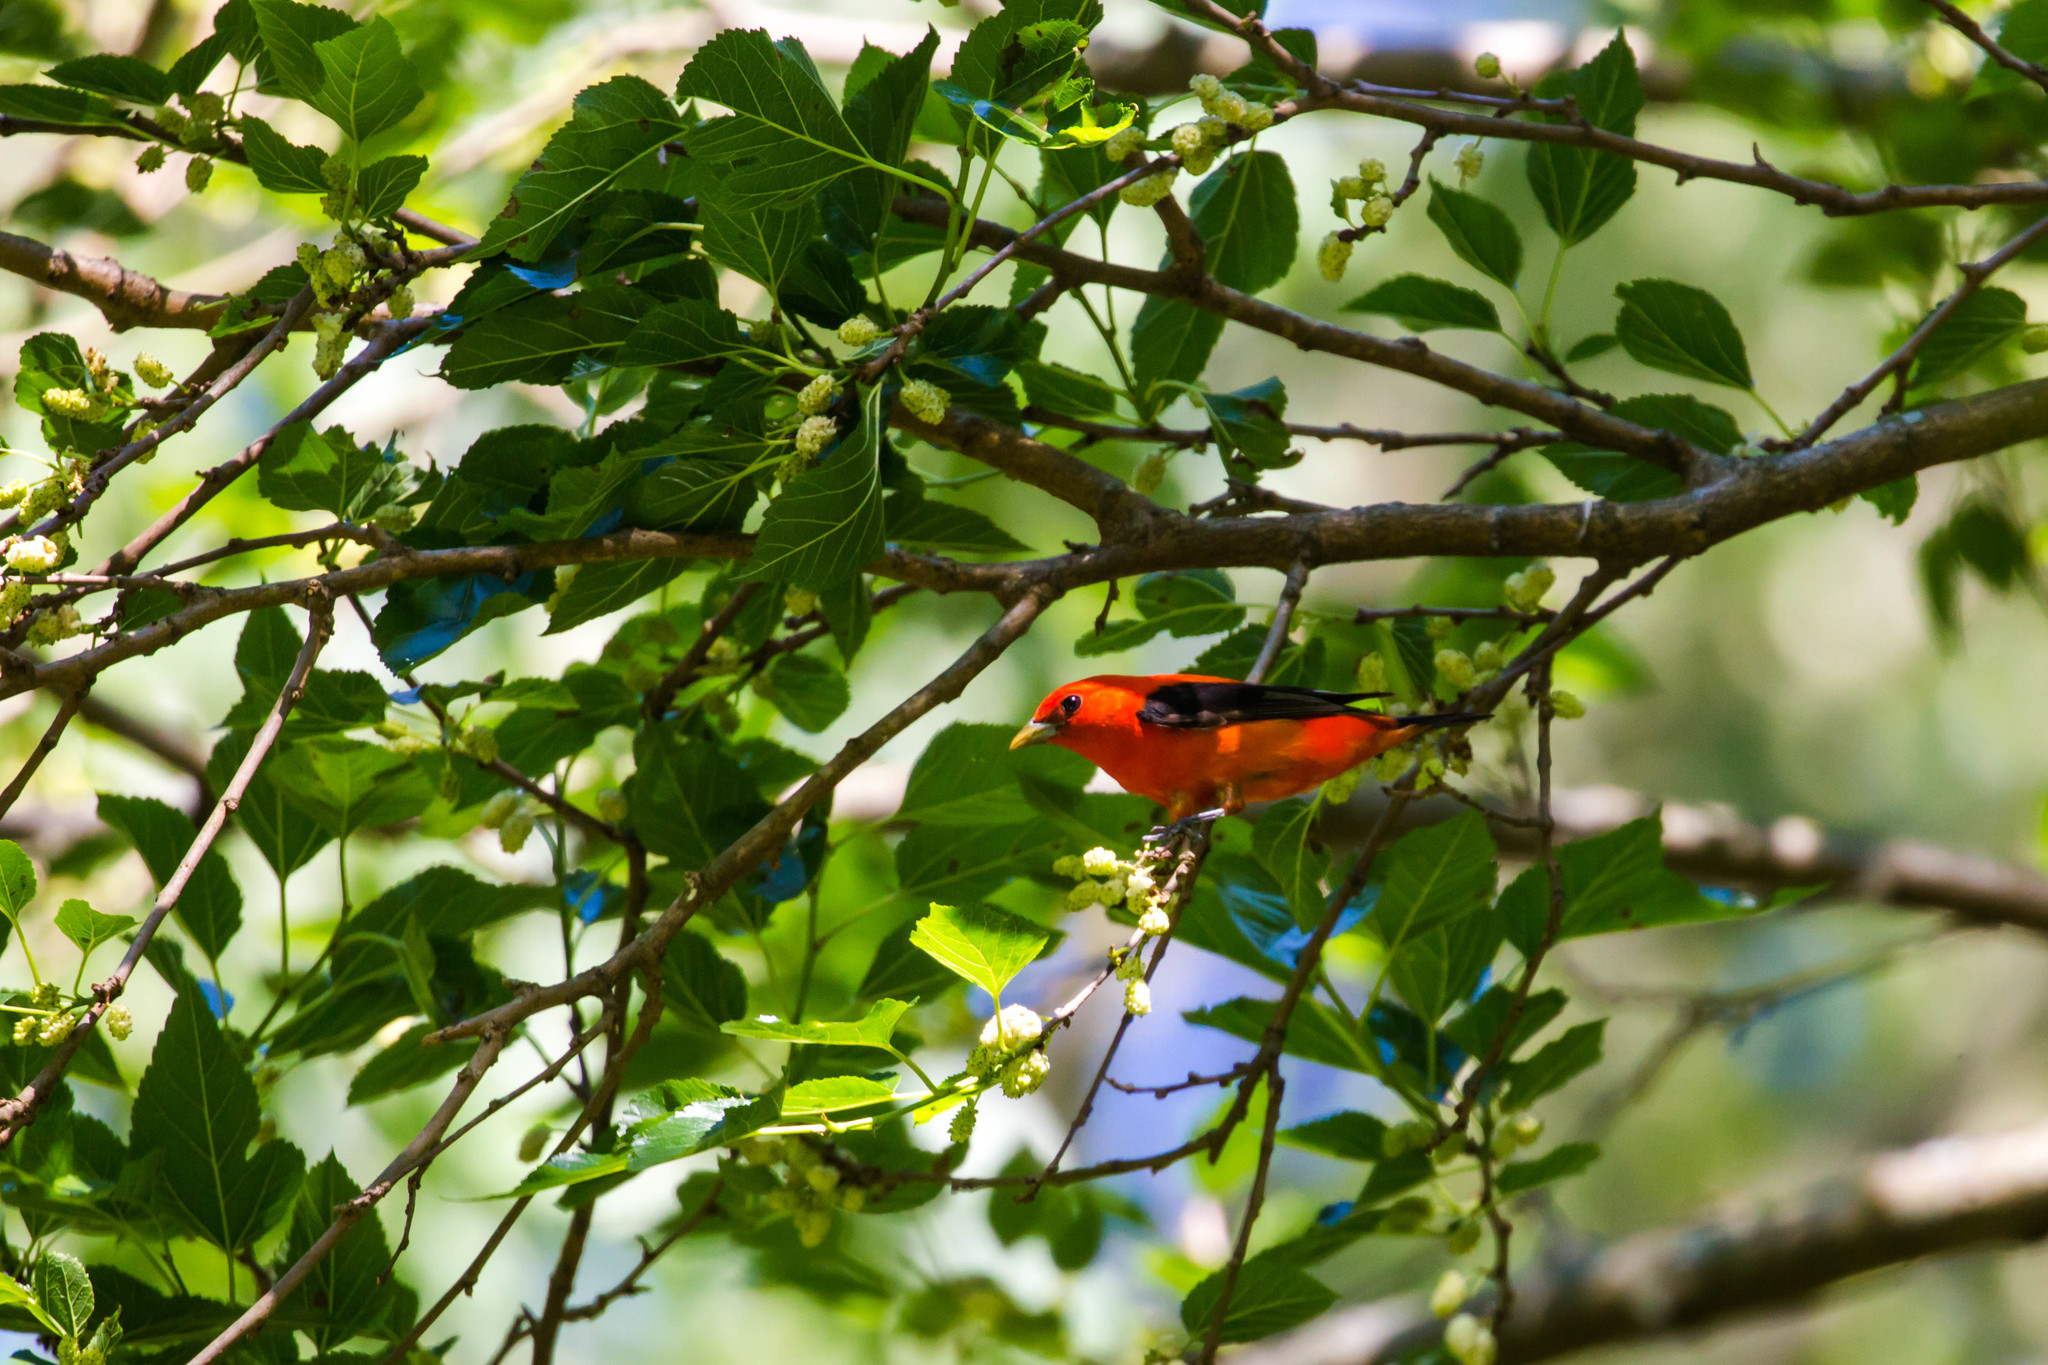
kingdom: Animalia
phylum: Chordata
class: Aves
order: Passeriformes
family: Cardinalidae
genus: Piranga
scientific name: Piranga olivacea
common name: Scarlet tanager
